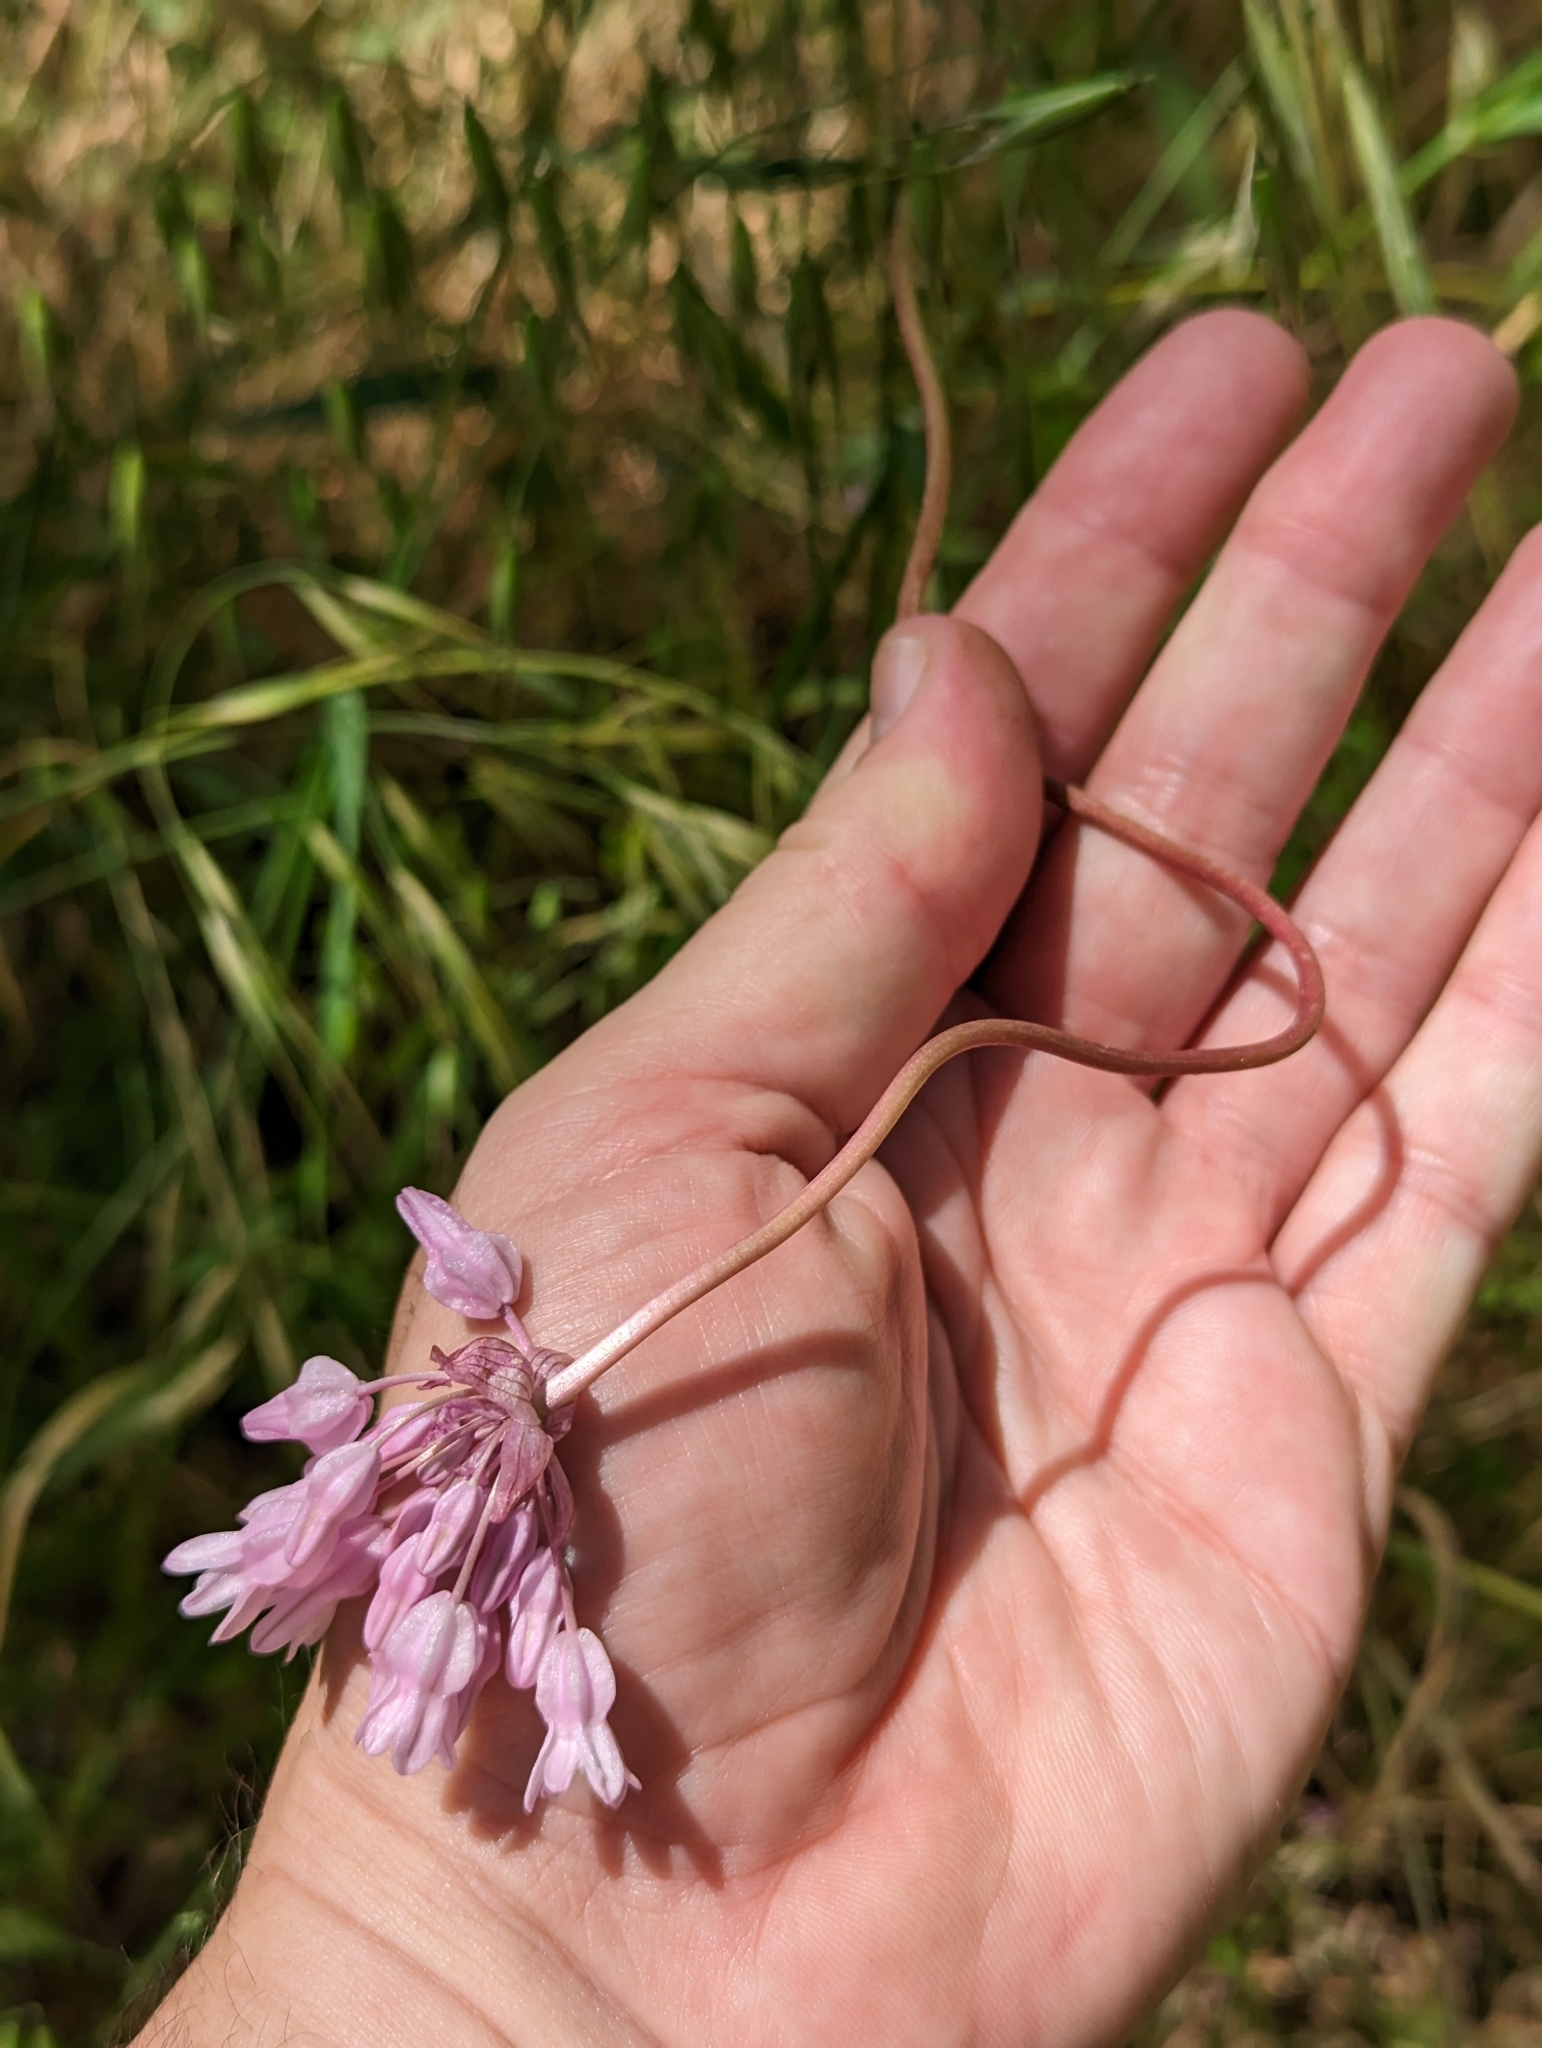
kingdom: Plantae
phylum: Tracheophyta
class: Liliopsida
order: Asparagales
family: Asparagaceae
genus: Dichelostemma
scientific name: Dichelostemma volubile
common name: Trining brodiaea
